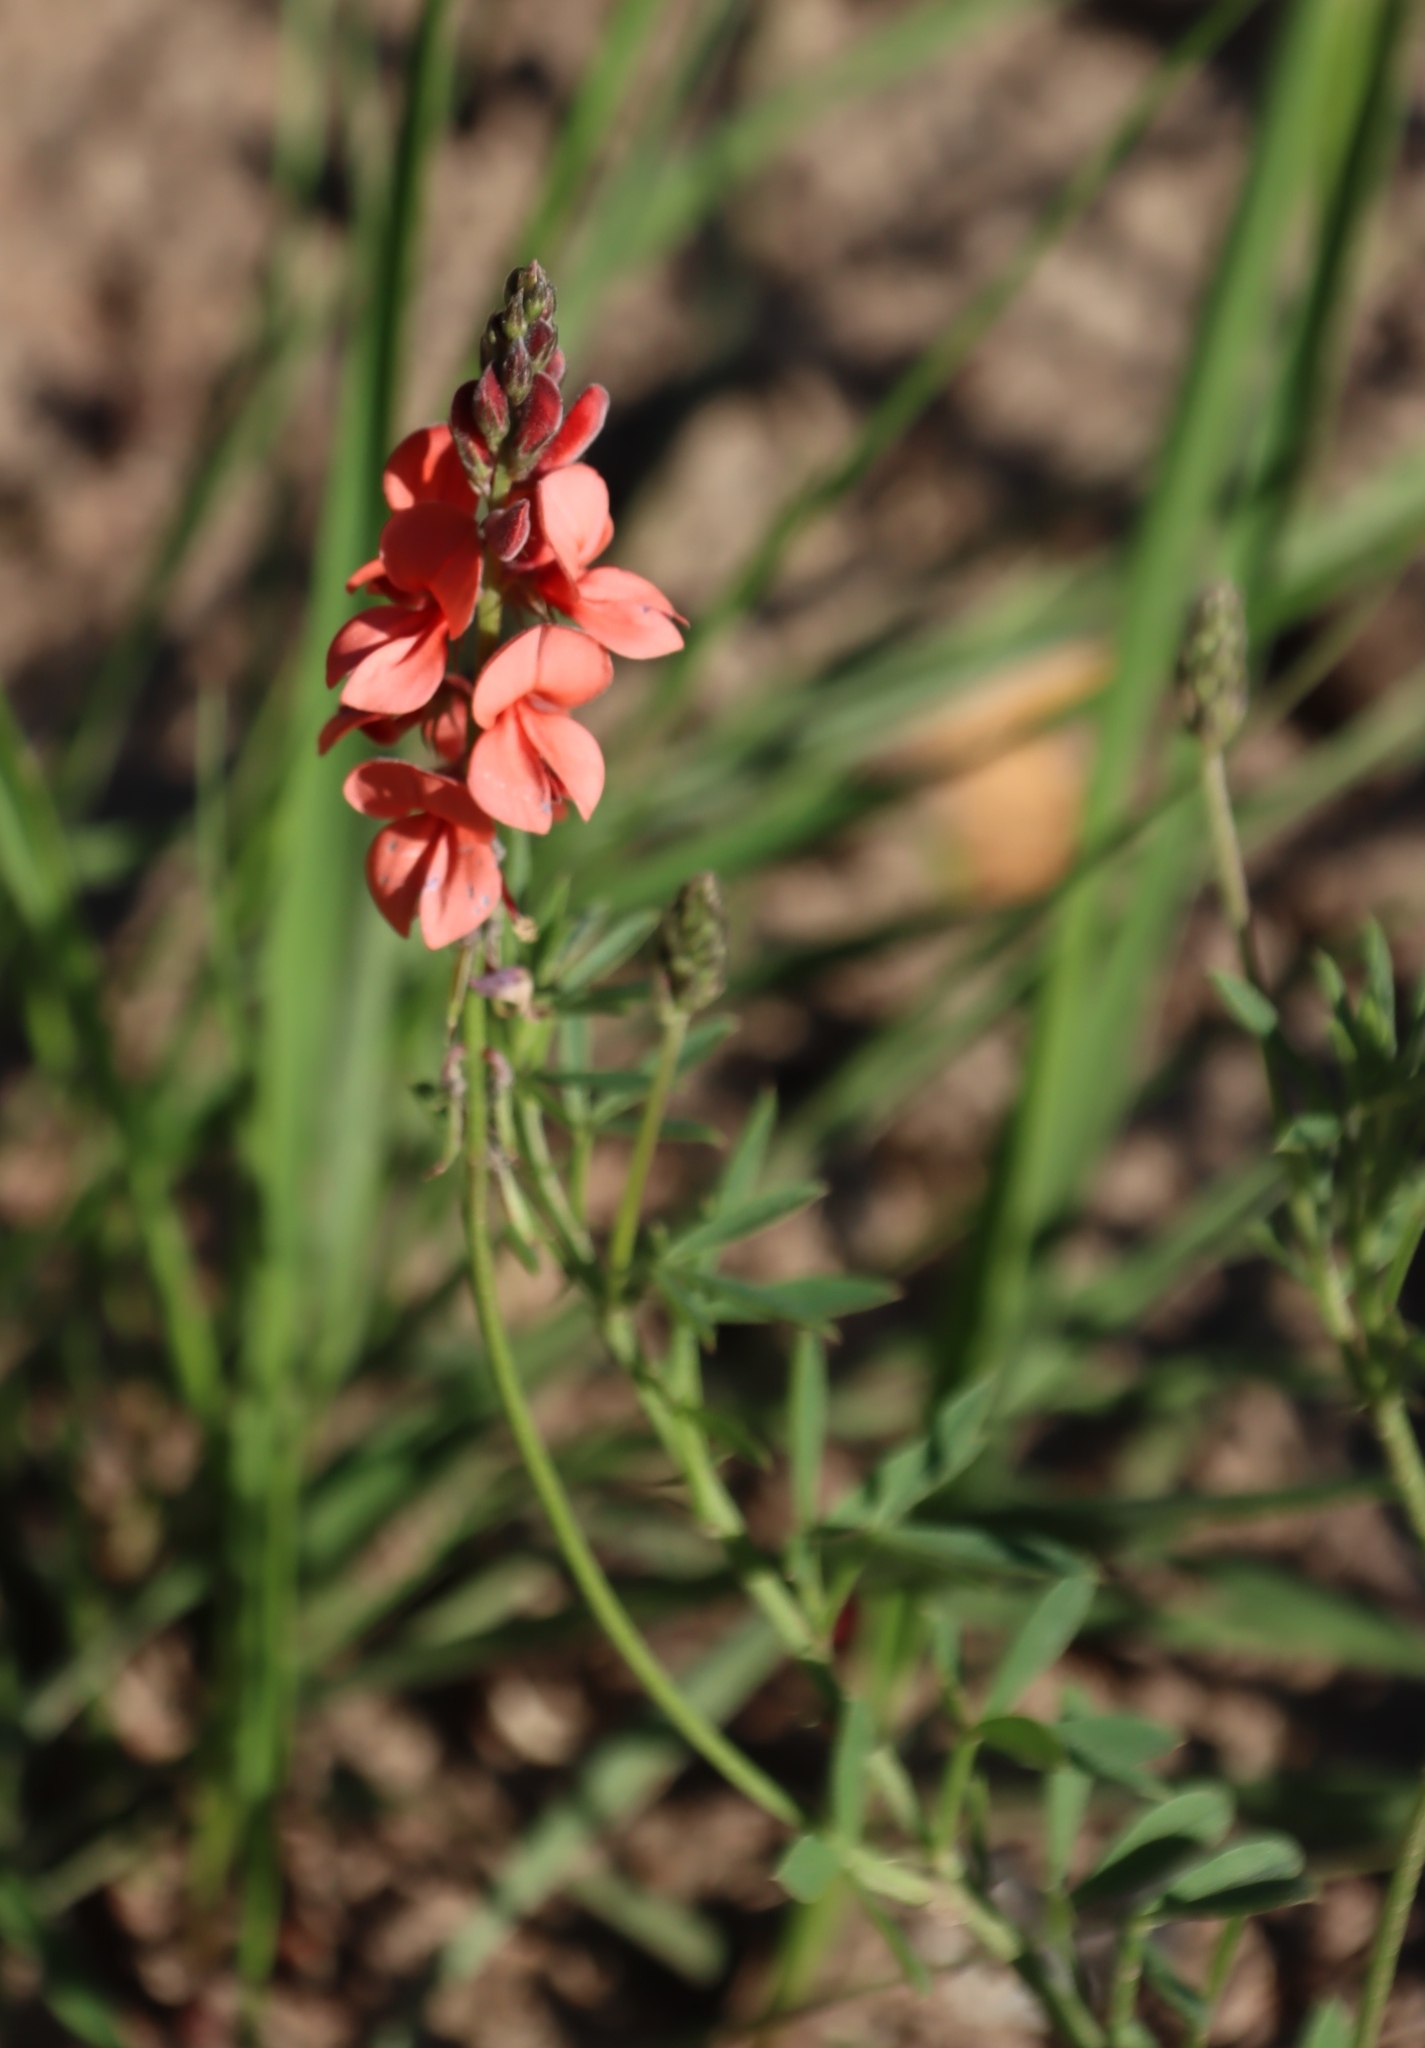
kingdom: Plantae
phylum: Tracheophyta
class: Magnoliopsida
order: Fabales
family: Fabaceae
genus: Indigofera
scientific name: Indigofera heterophylla
